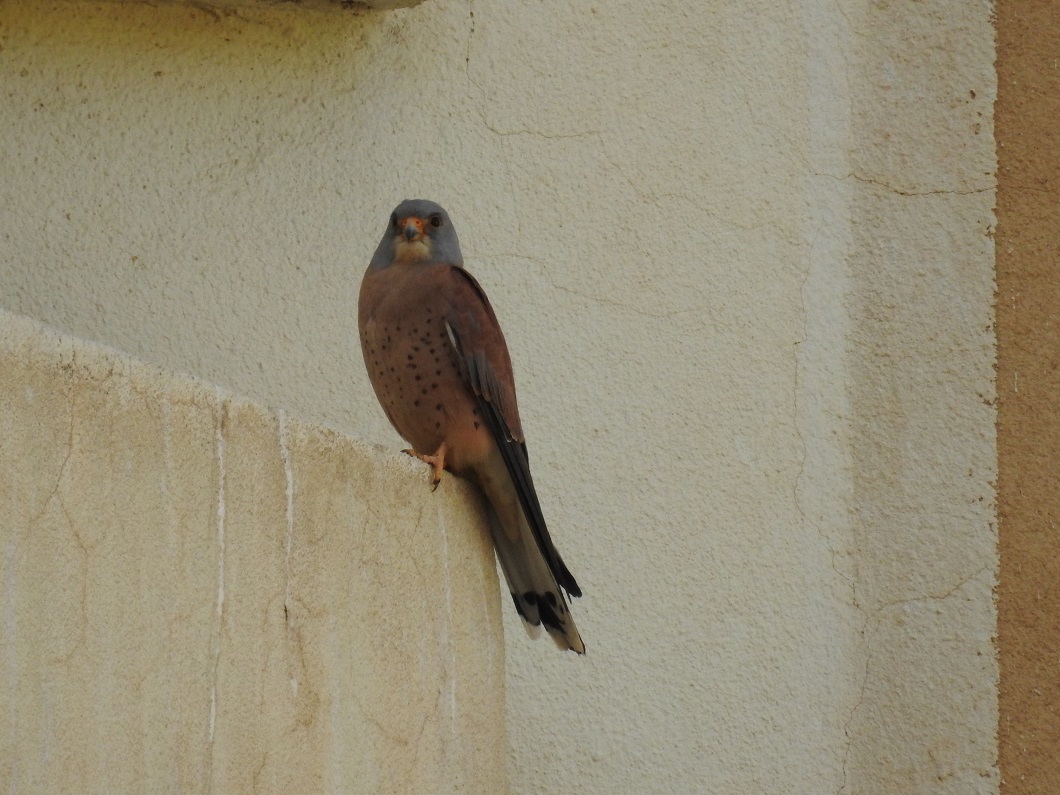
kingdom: Animalia
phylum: Chordata
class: Aves
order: Falconiformes
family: Falconidae
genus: Falco
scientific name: Falco naumanni
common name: Lesser kestrel
